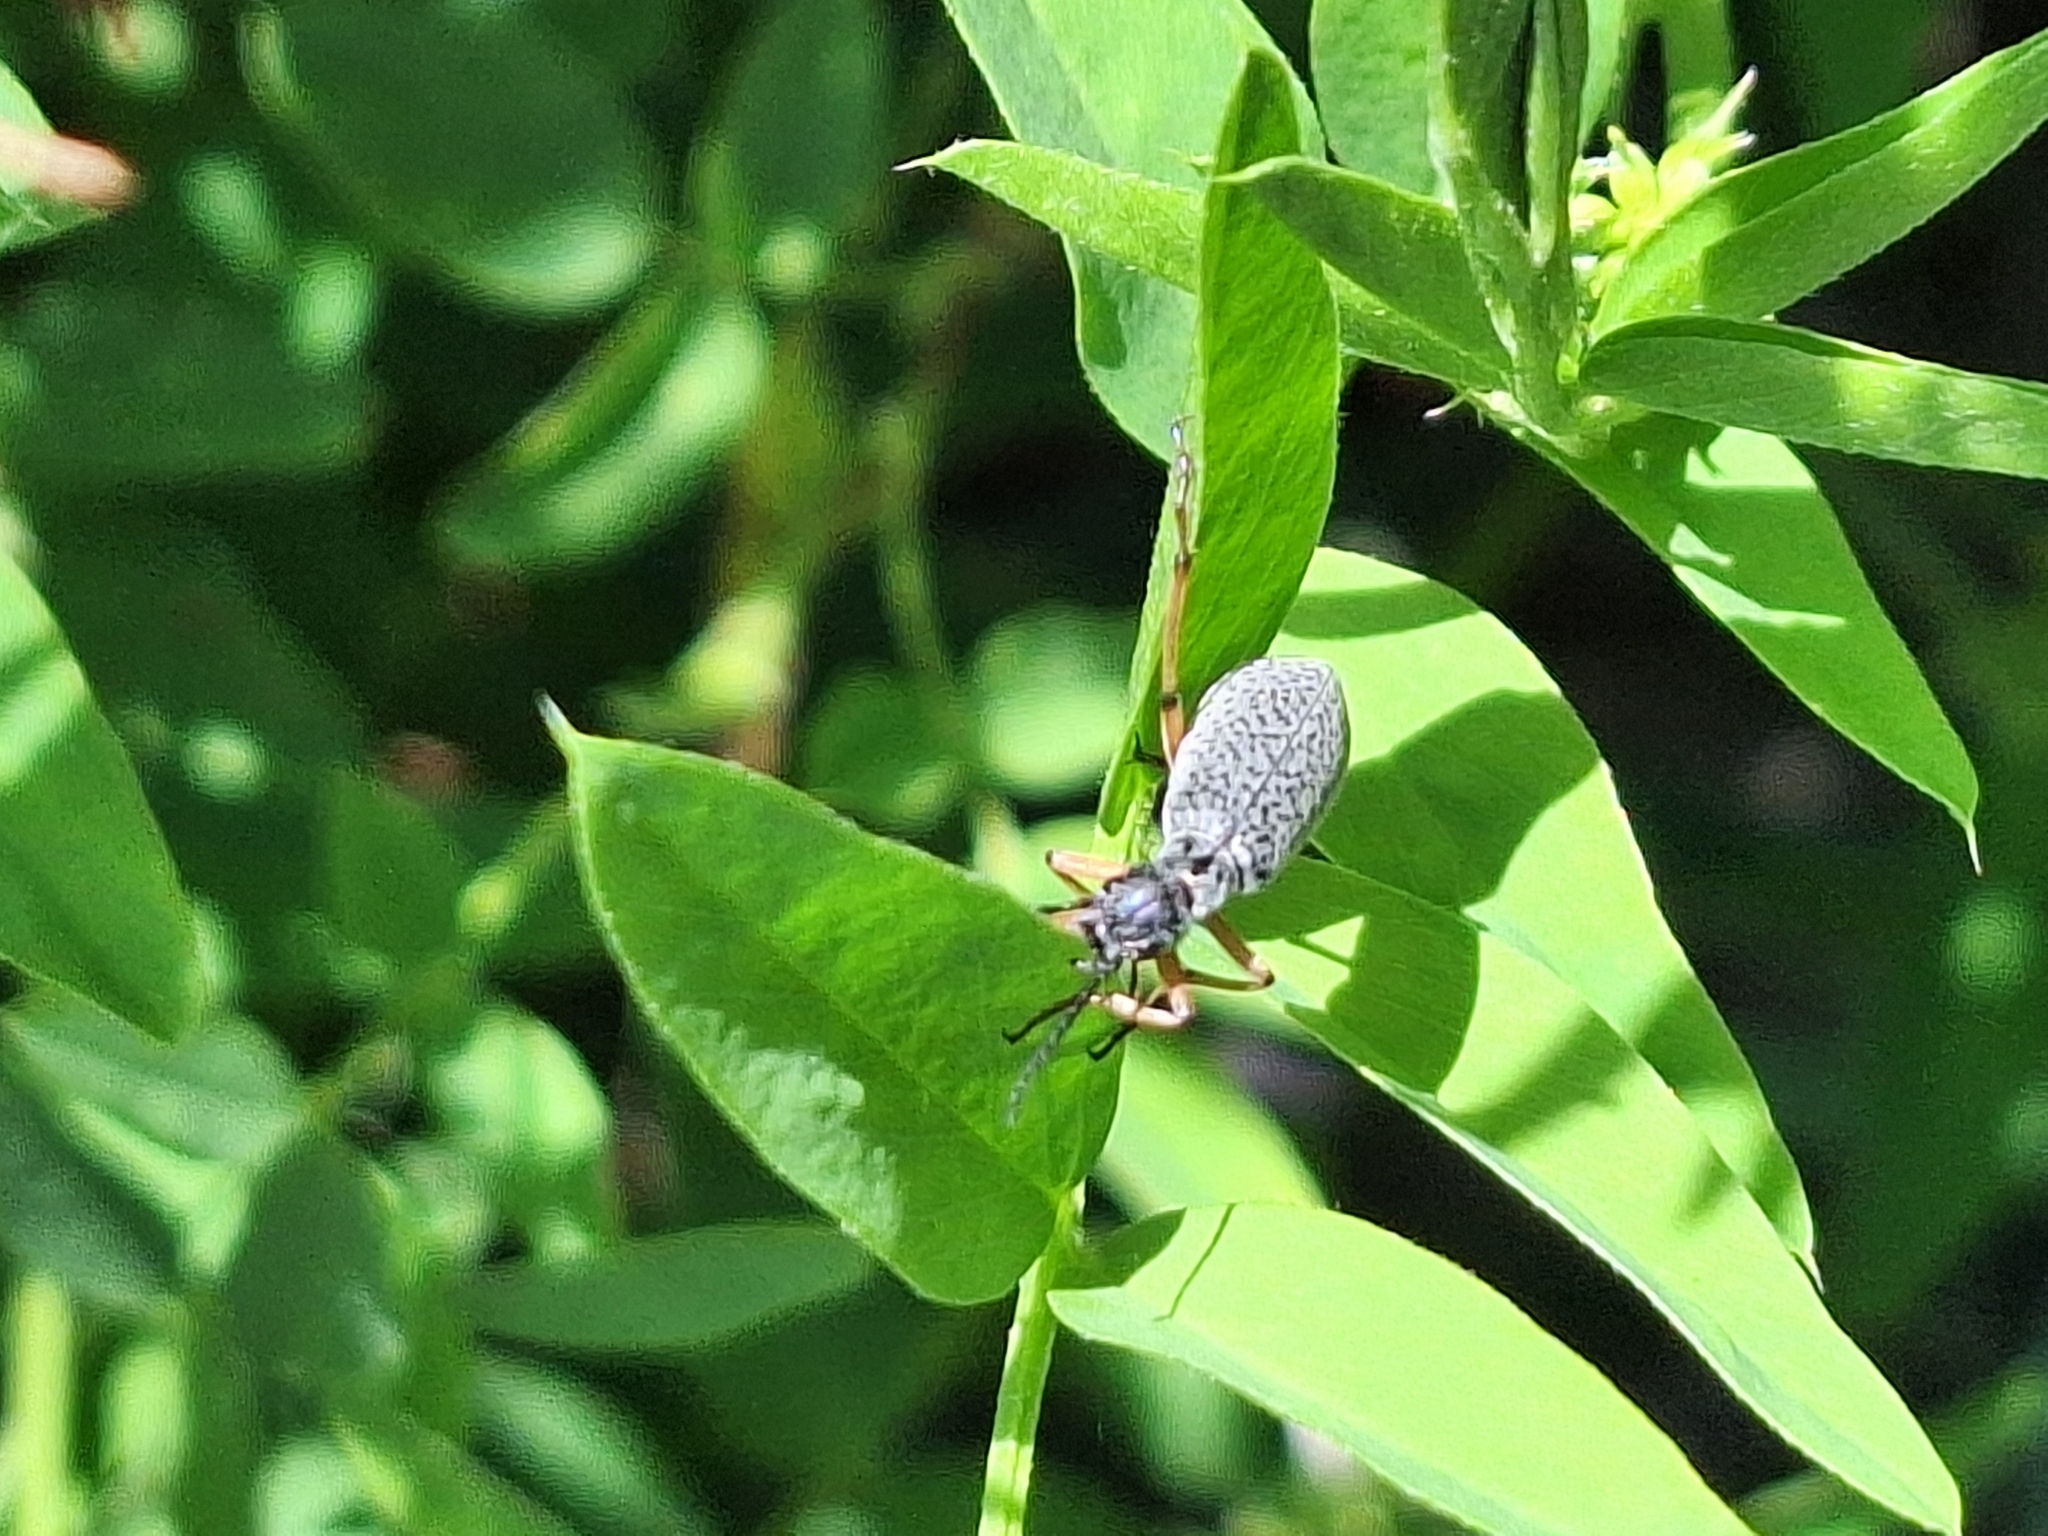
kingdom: Animalia
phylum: Arthropoda
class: Insecta
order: Coleoptera
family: Meloidae
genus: Epicauta
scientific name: Epicauta
